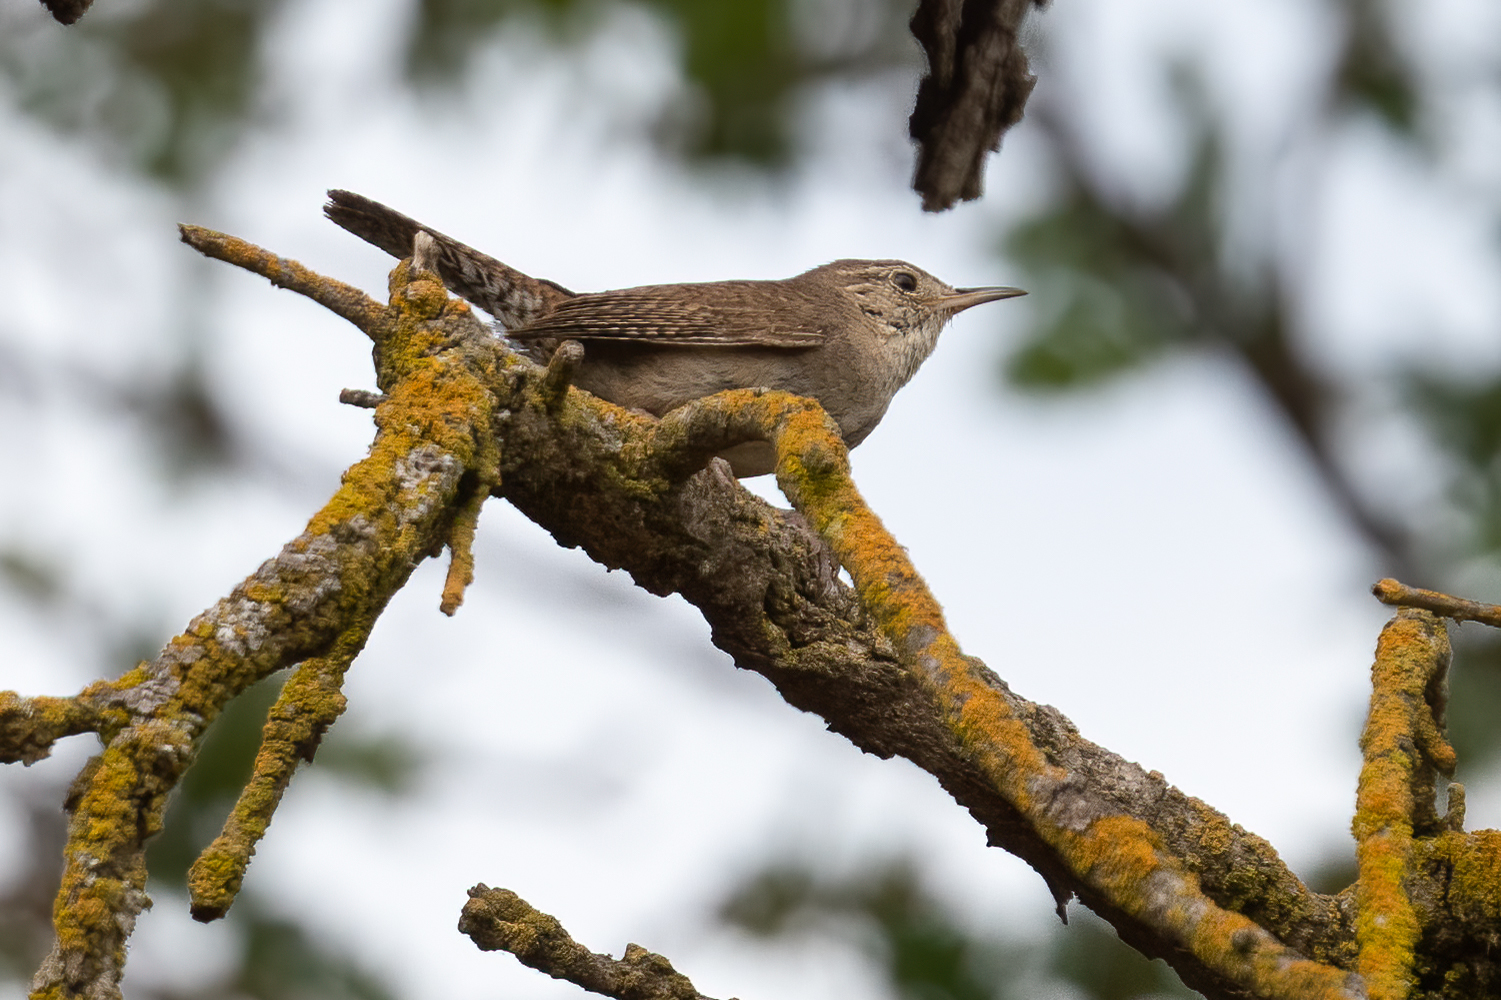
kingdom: Animalia
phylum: Chordata
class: Aves
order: Passeriformes
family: Troglodytidae
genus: Troglodytes
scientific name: Troglodytes aedon
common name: House wren
